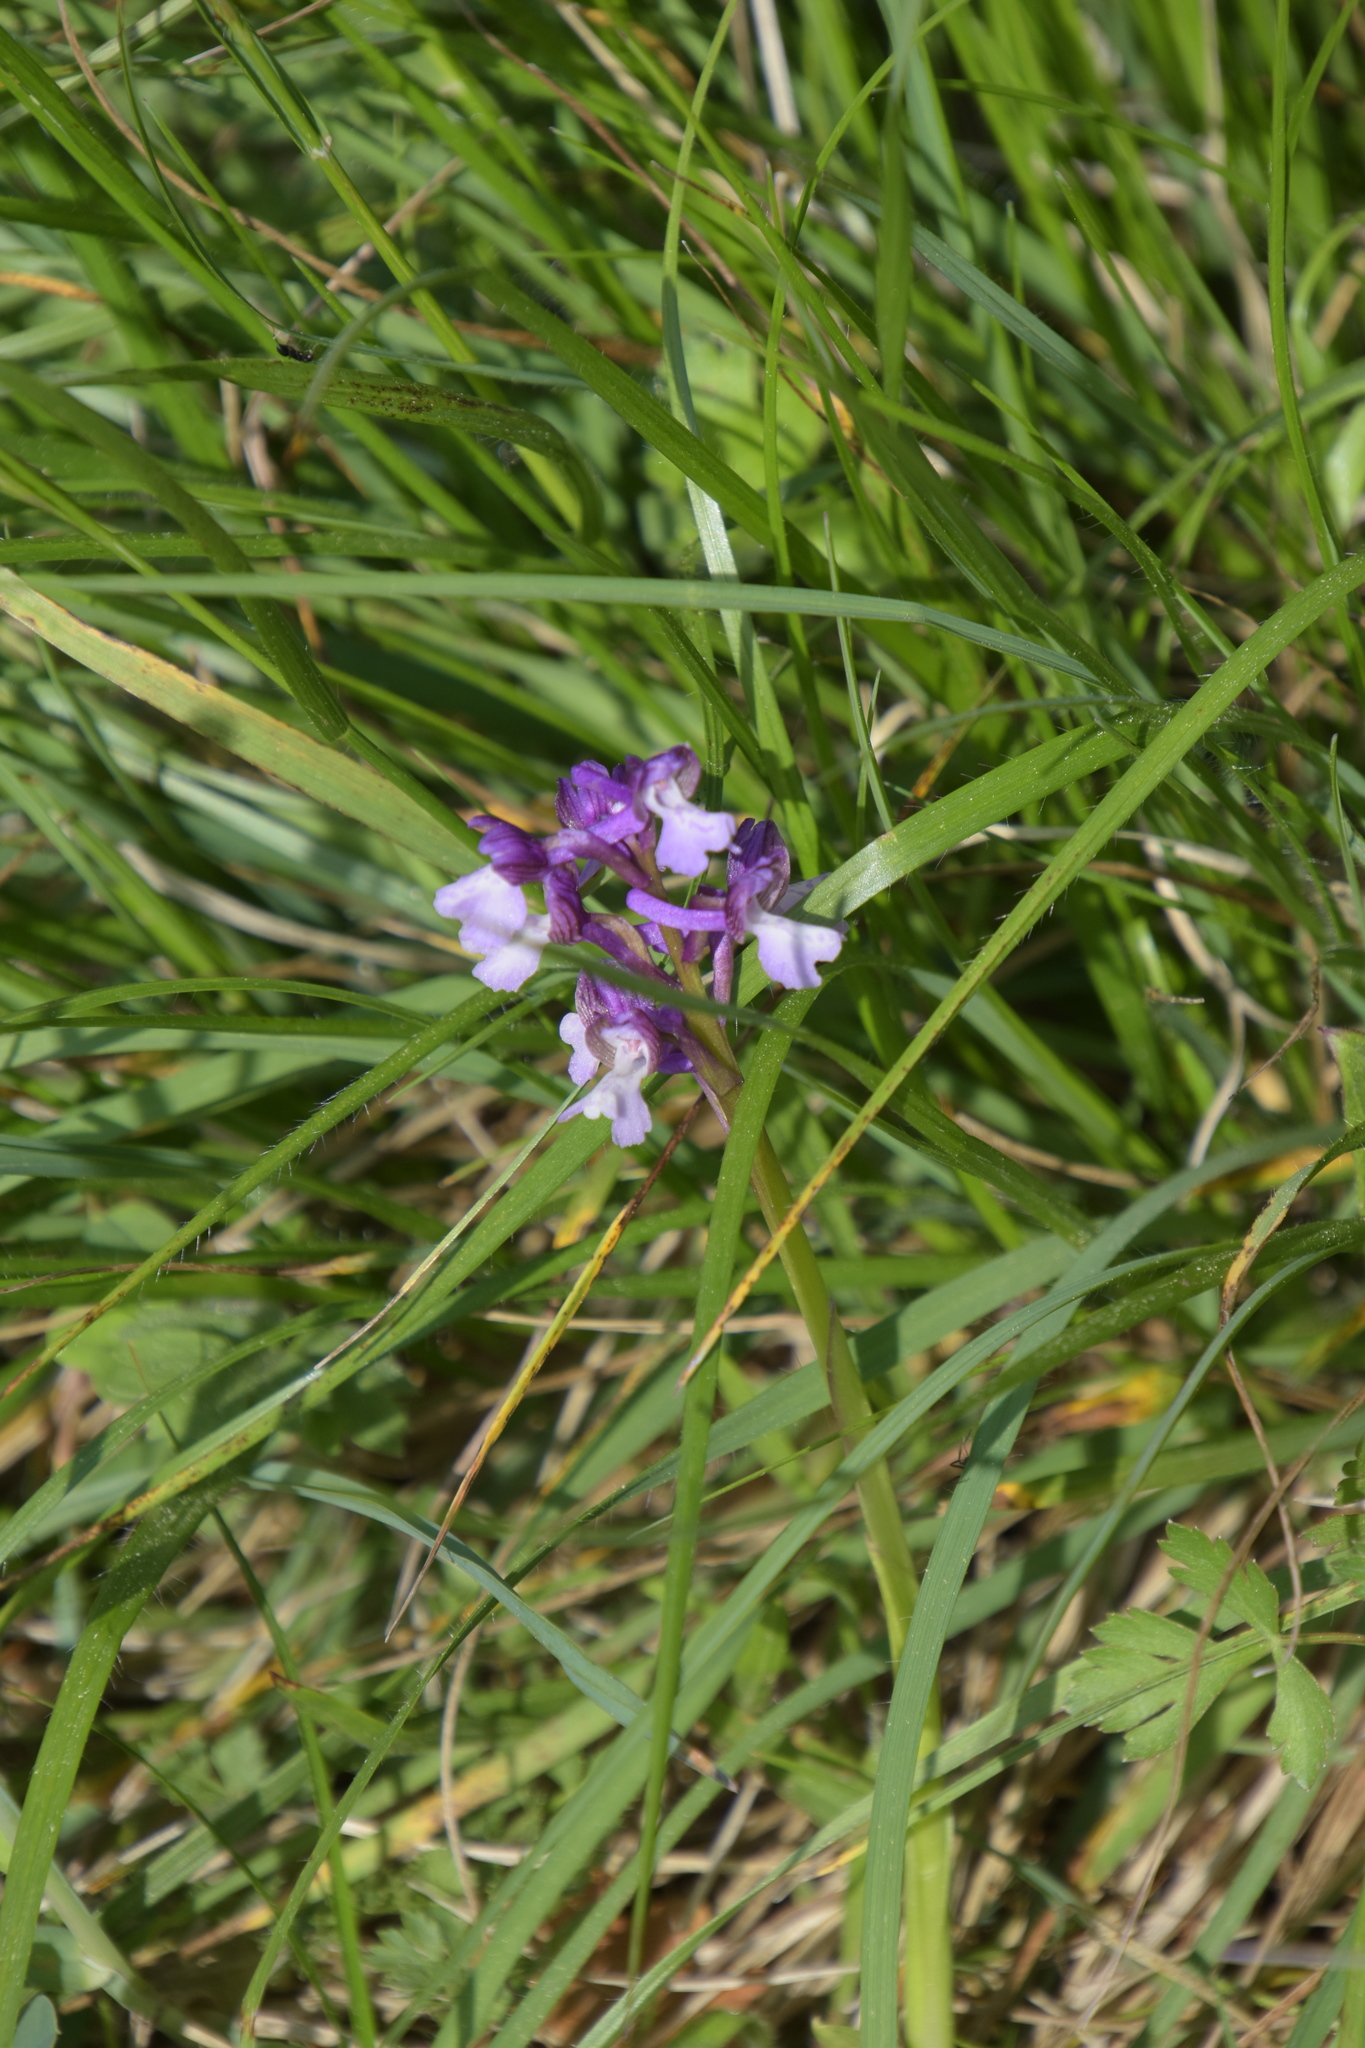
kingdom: Plantae
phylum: Tracheophyta
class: Liliopsida
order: Asparagales
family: Orchidaceae
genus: Anacamptis
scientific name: Anacamptis morio
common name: Green-winged orchid
